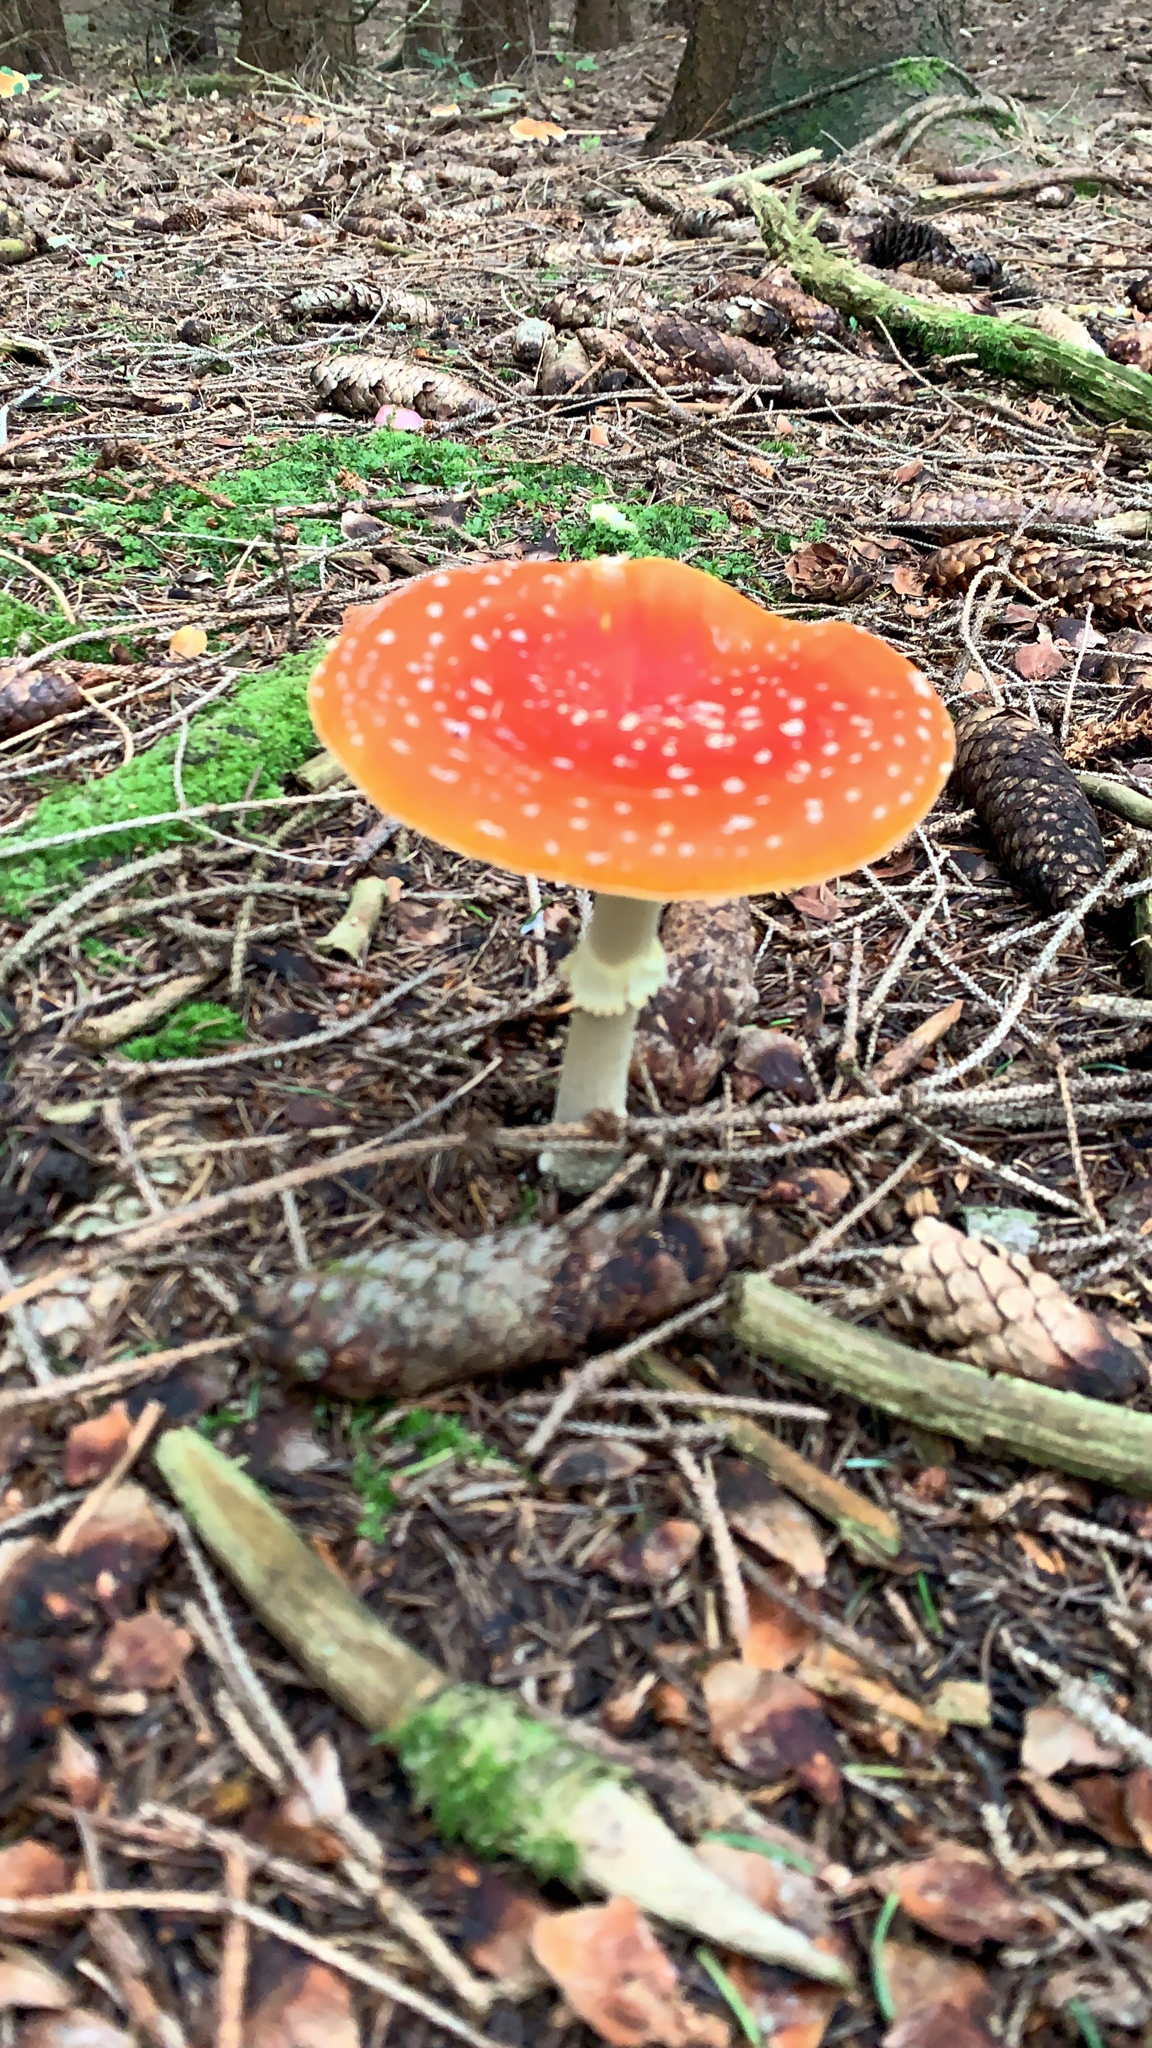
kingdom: Fungi
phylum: Basidiomycota
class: Agaricomycetes
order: Agaricales
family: Amanitaceae
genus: Amanita
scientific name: Amanita muscaria
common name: Fly agaric
